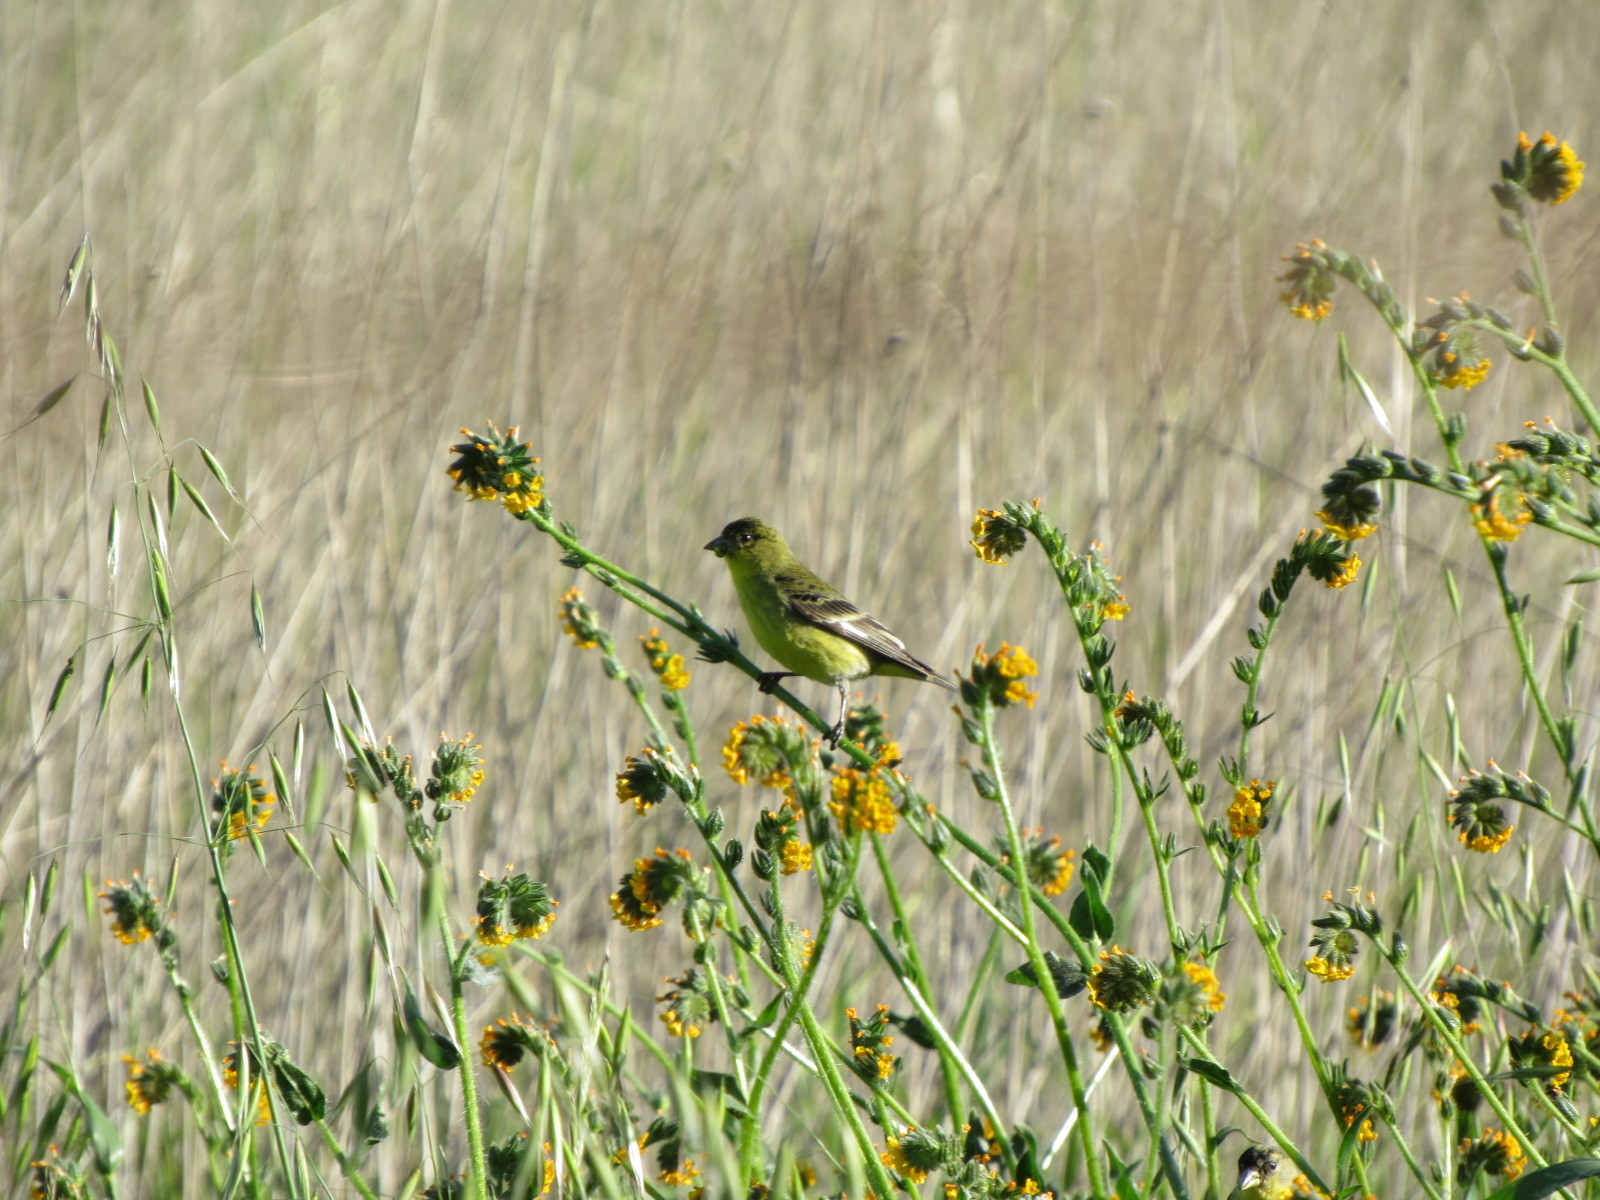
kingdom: Animalia
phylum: Chordata
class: Aves
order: Passeriformes
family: Fringillidae
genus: Spinus
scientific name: Spinus psaltria
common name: Lesser goldfinch
